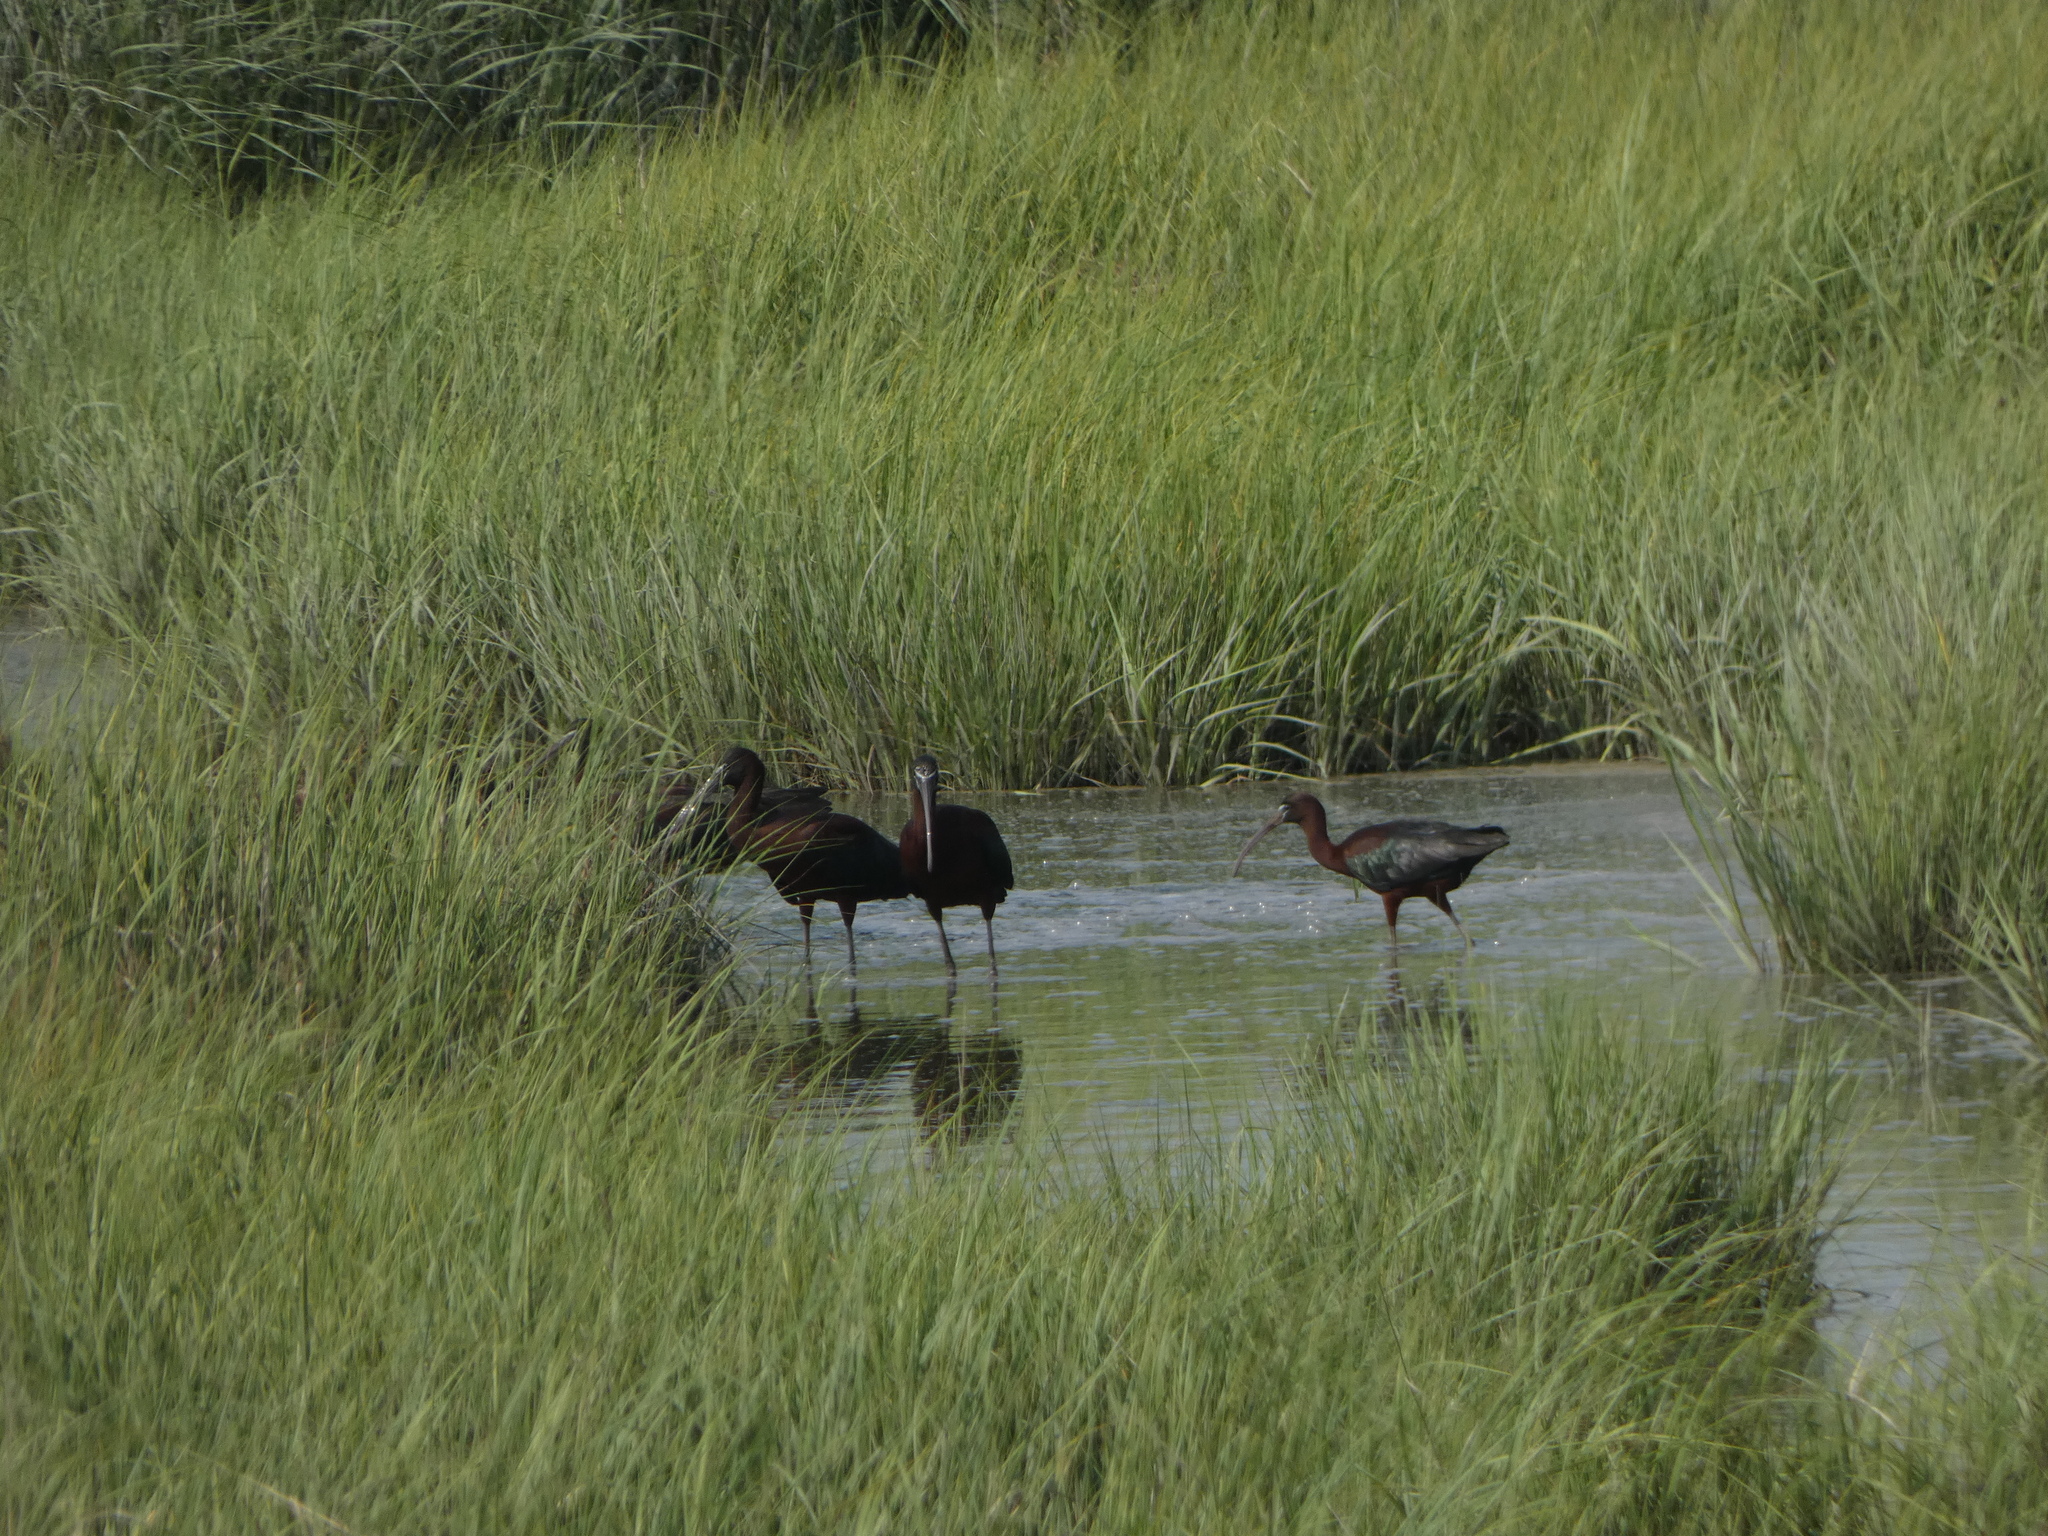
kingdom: Animalia
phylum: Chordata
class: Aves
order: Pelecaniformes
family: Threskiornithidae
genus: Plegadis
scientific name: Plegadis falcinellus
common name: Glossy ibis
